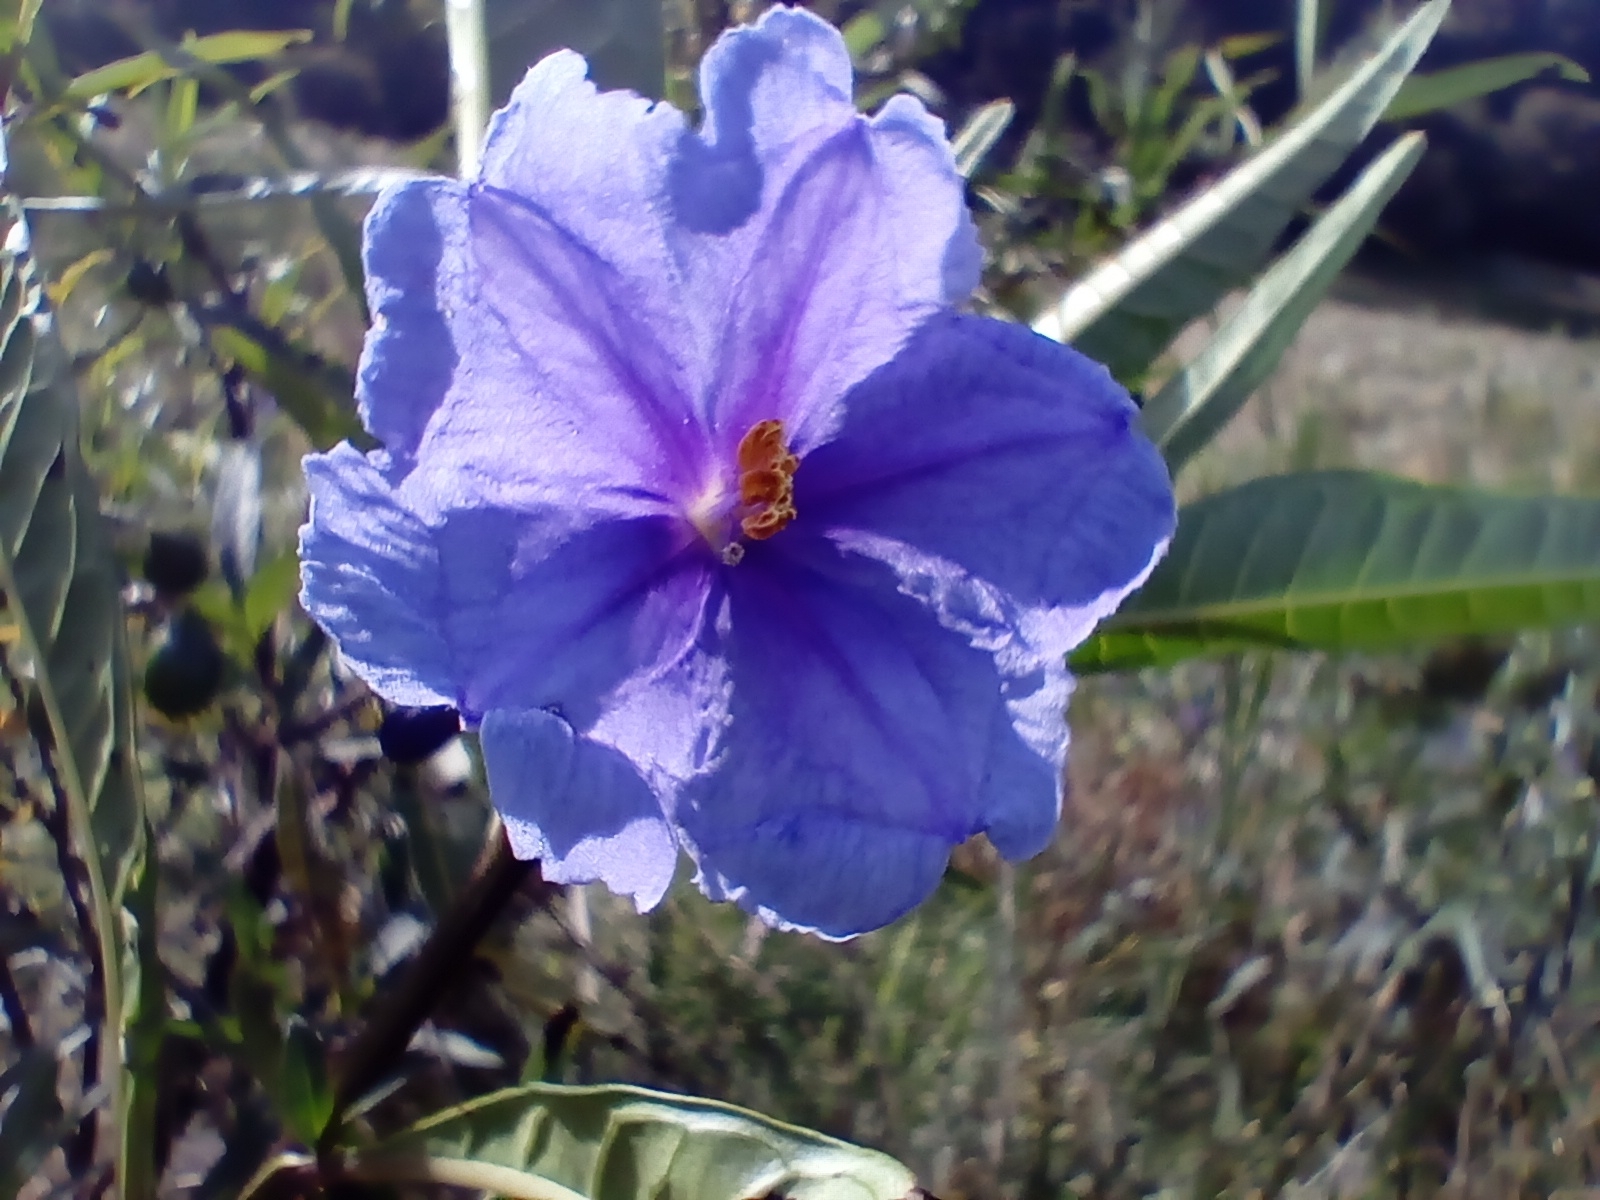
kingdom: Plantae
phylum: Tracheophyta
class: Magnoliopsida
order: Solanales
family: Solanaceae
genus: Solanum
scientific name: Solanum laciniatum
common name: Kangaroo-apple
